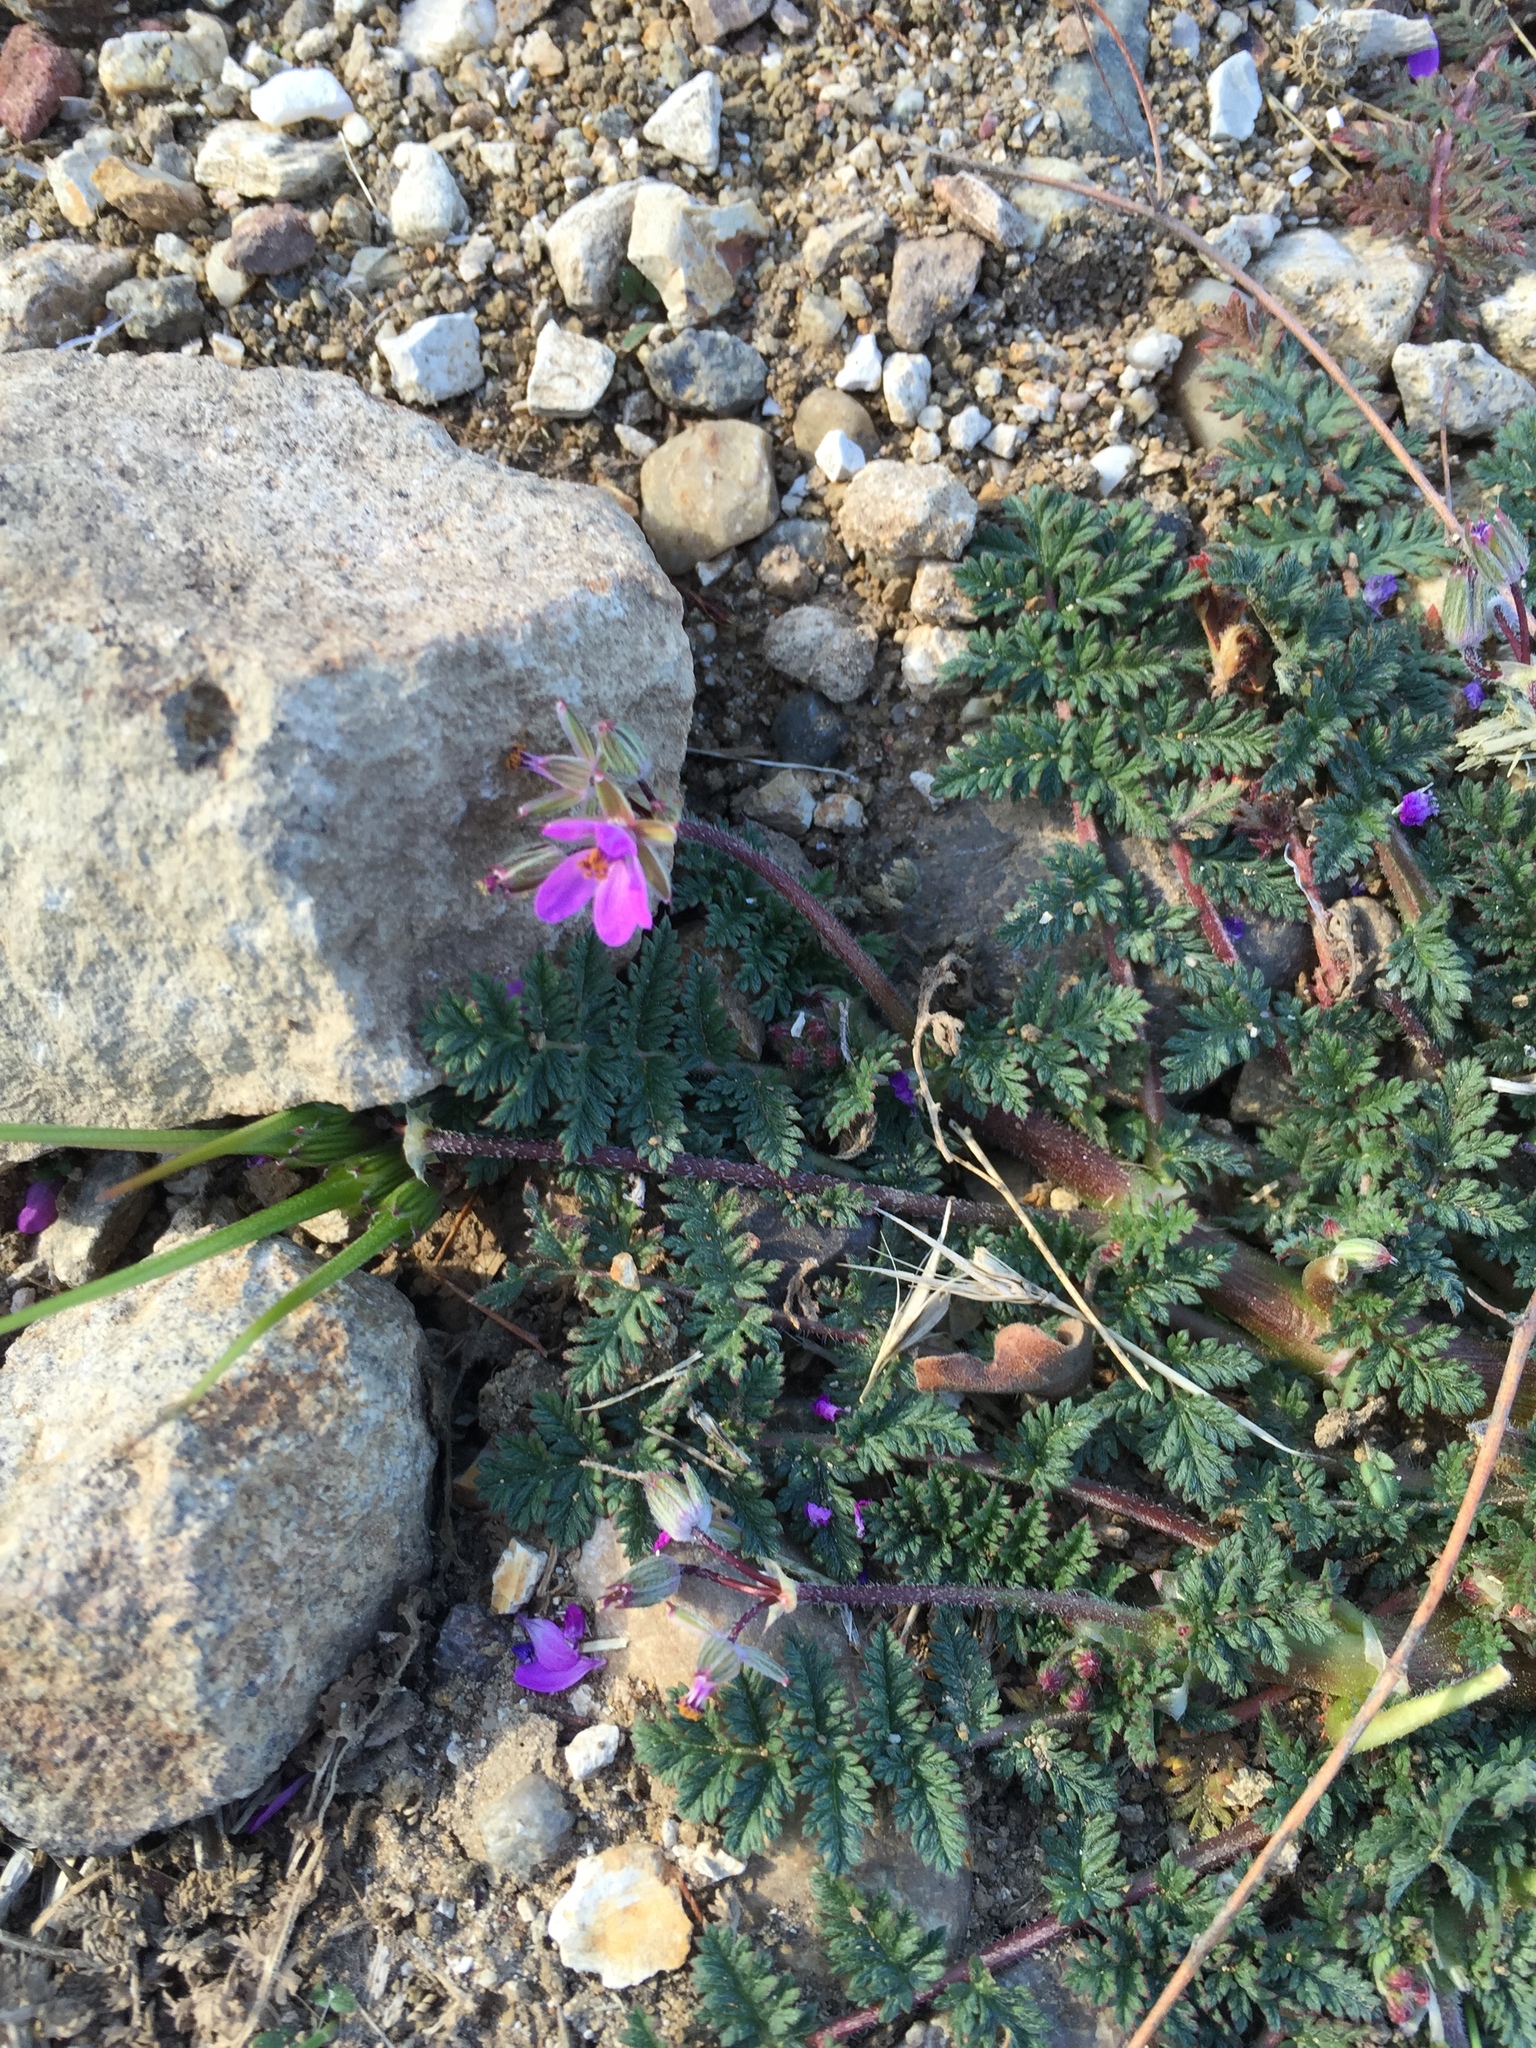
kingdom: Plantae
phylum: Tracheophyta
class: Magnoliopsida
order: Geraniales
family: Geraniaceae
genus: Erodium
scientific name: Erodium cicutarium
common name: Common stork's-bill
